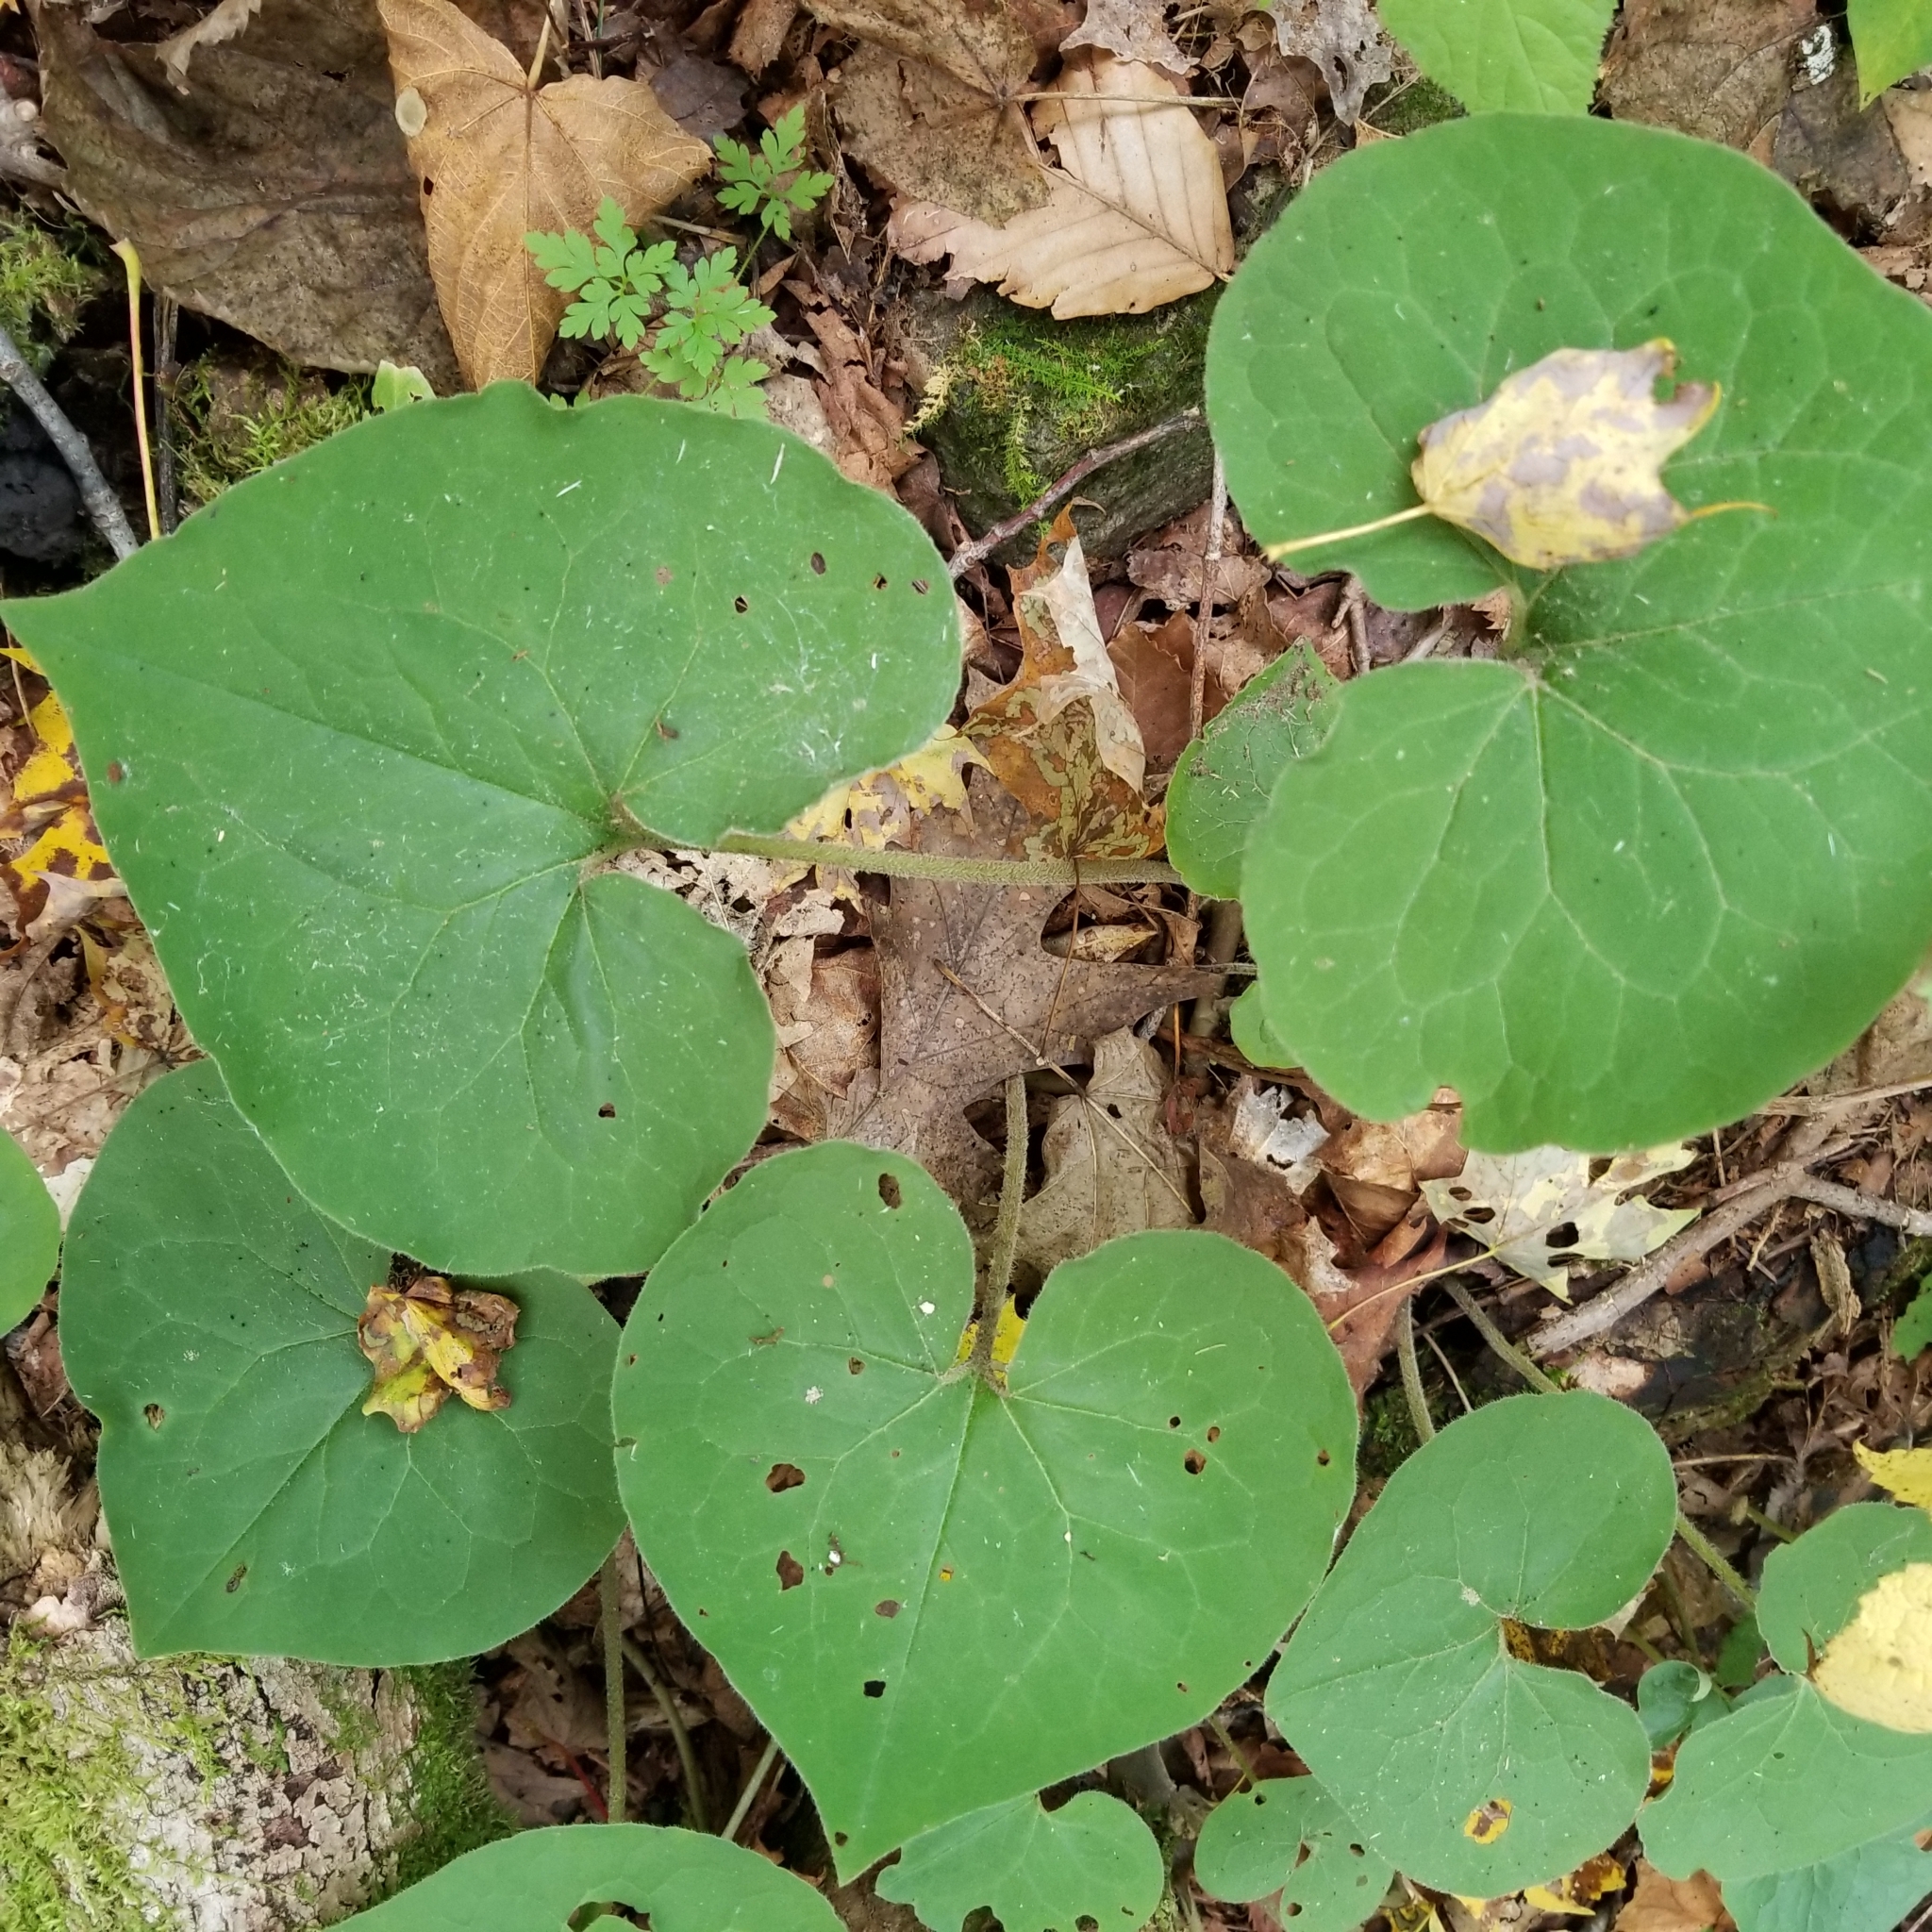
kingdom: Plantae
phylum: Tracheophyta
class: Magnoliopsida
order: Piperales
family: Aristolochiaceae
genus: Asarum
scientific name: Asarum canadense
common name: Wild ginger
